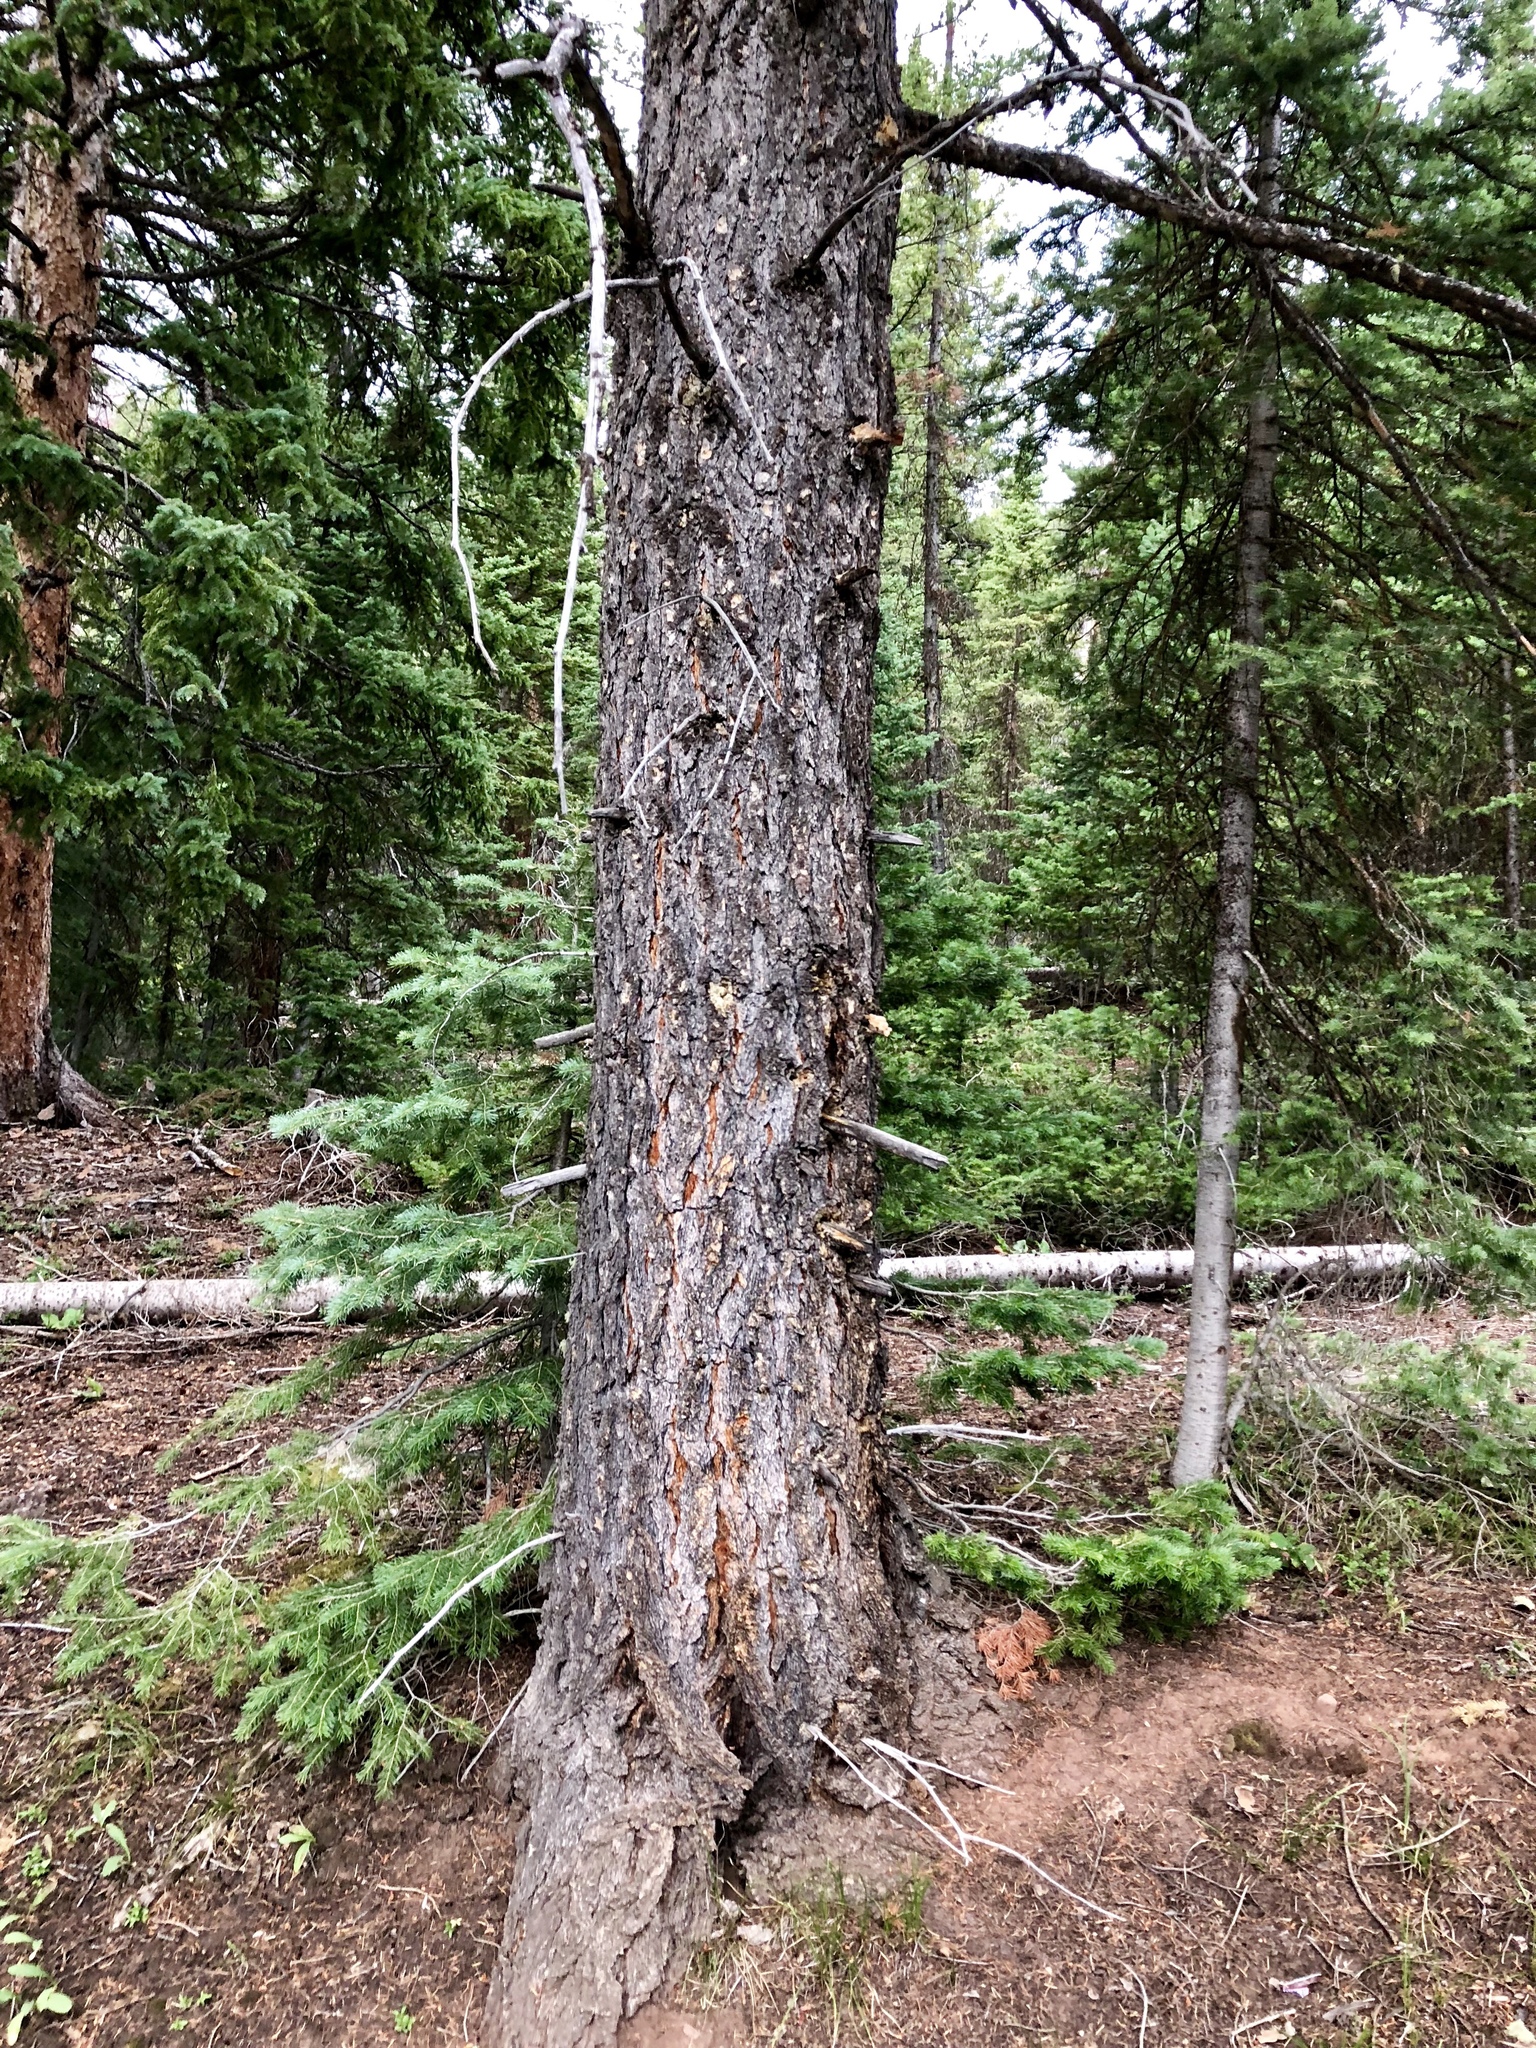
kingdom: Plantae
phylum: Tracheophyta
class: Pinopsida
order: Pinales
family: Pinaceae
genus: Pseudotsuga
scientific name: Pseudotsuga menziesii
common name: Douglas fir
